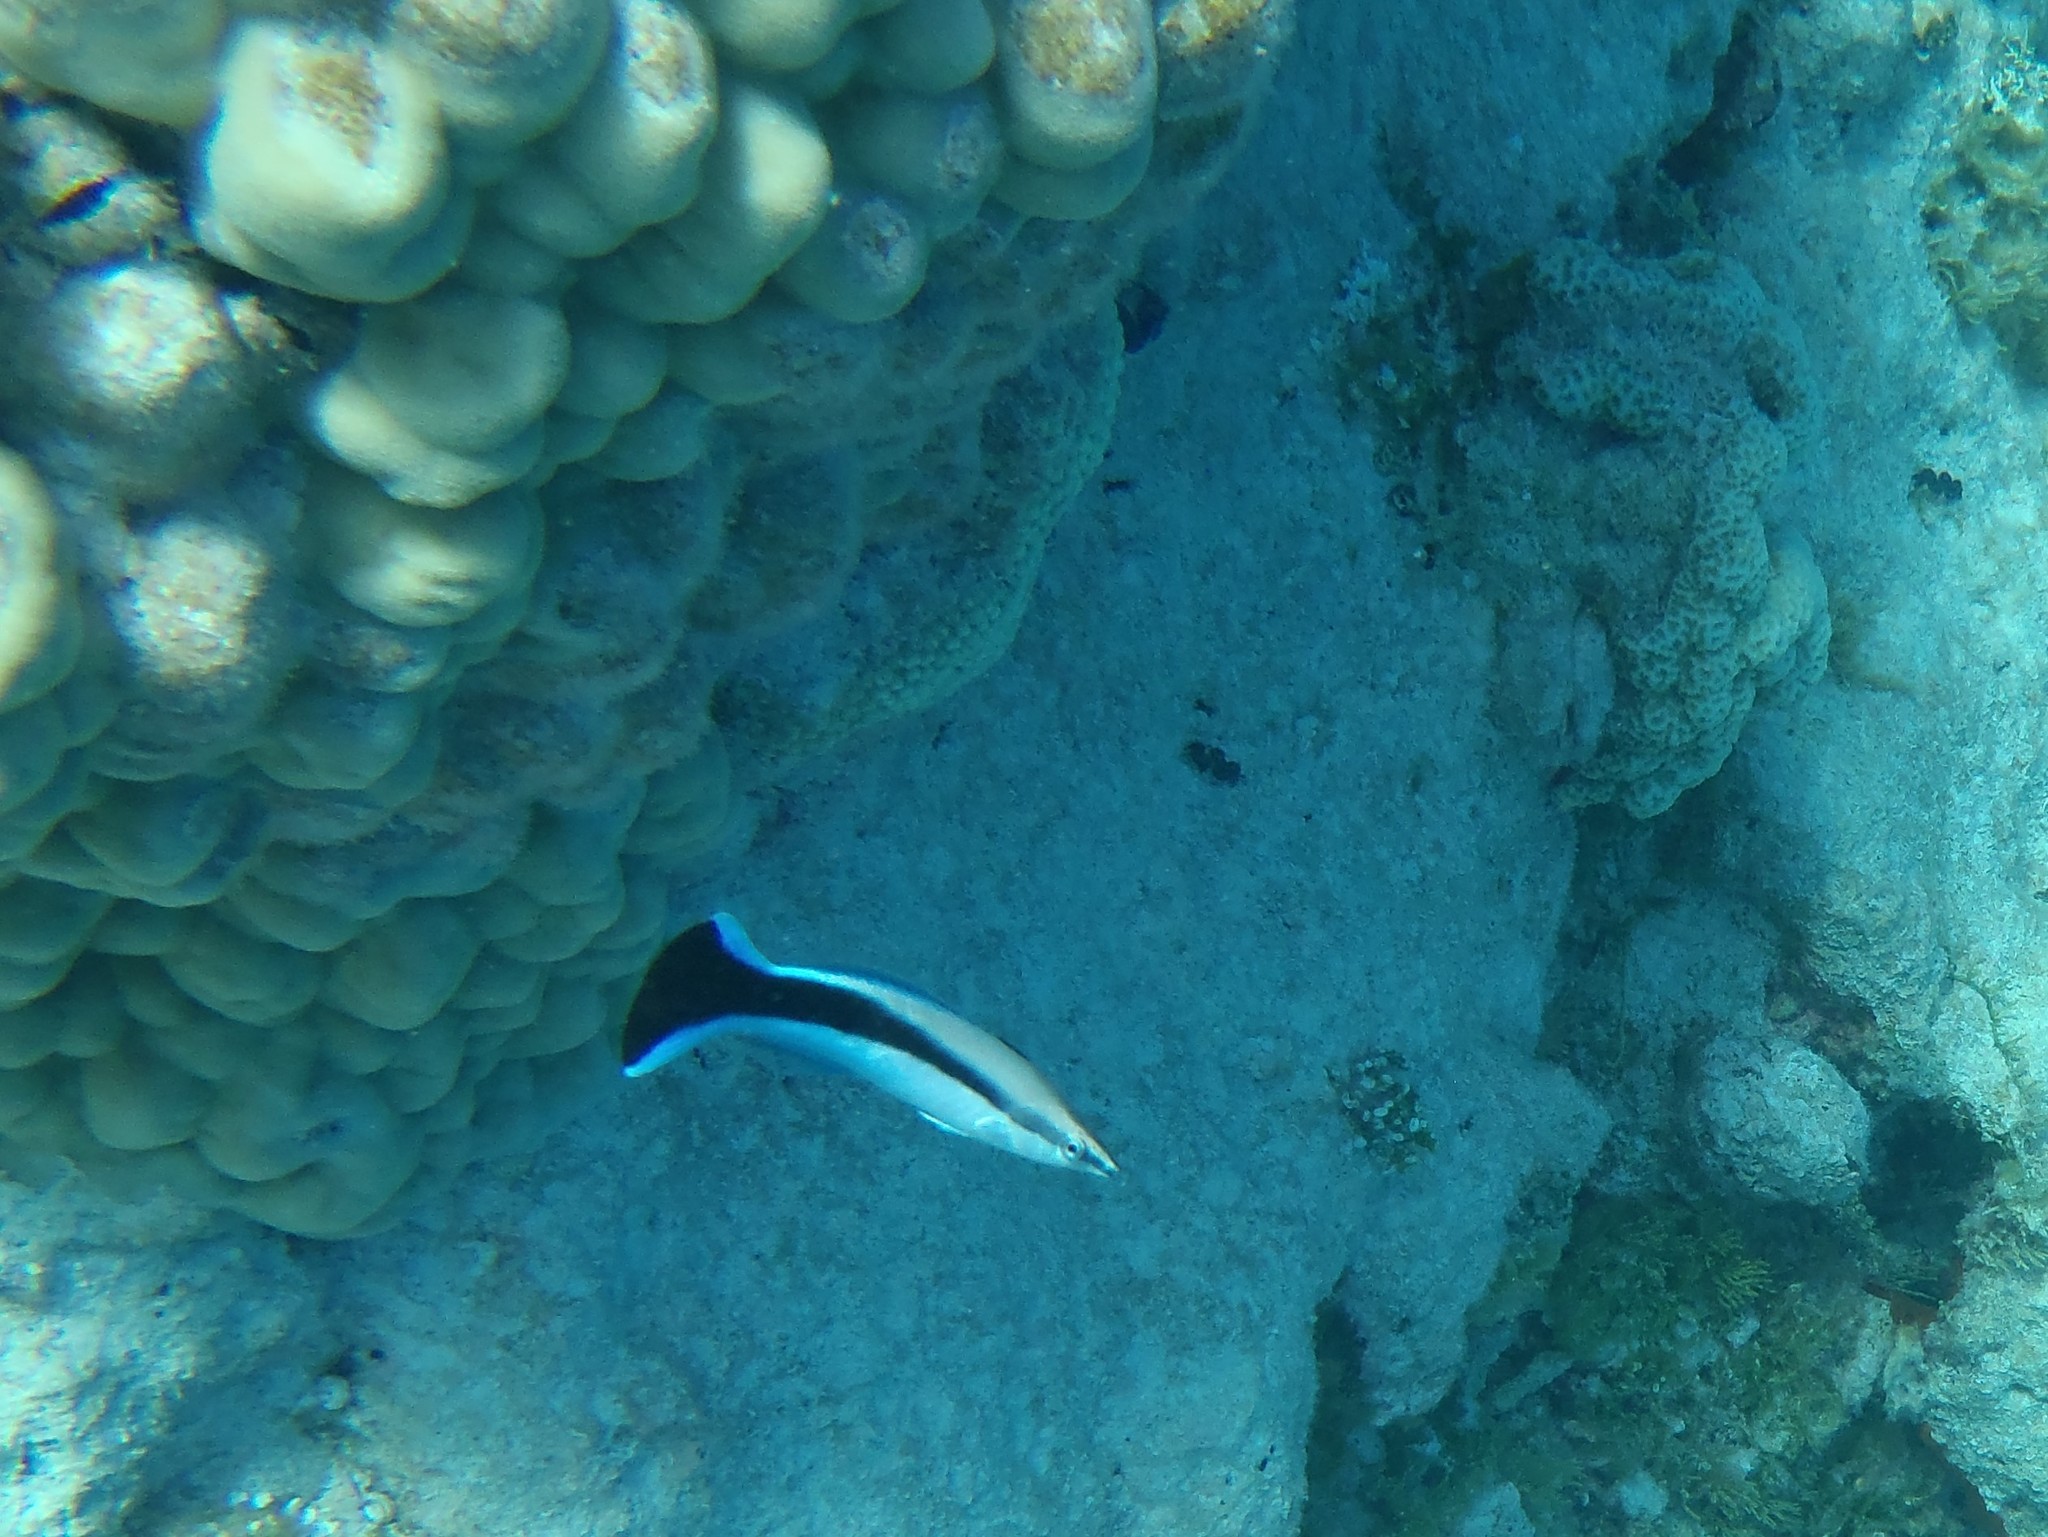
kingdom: Animalia
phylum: Chordata
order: Perciformes
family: Labridae
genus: Labroides
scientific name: Labroides dimidiatus
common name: Blue diesel wrasse
